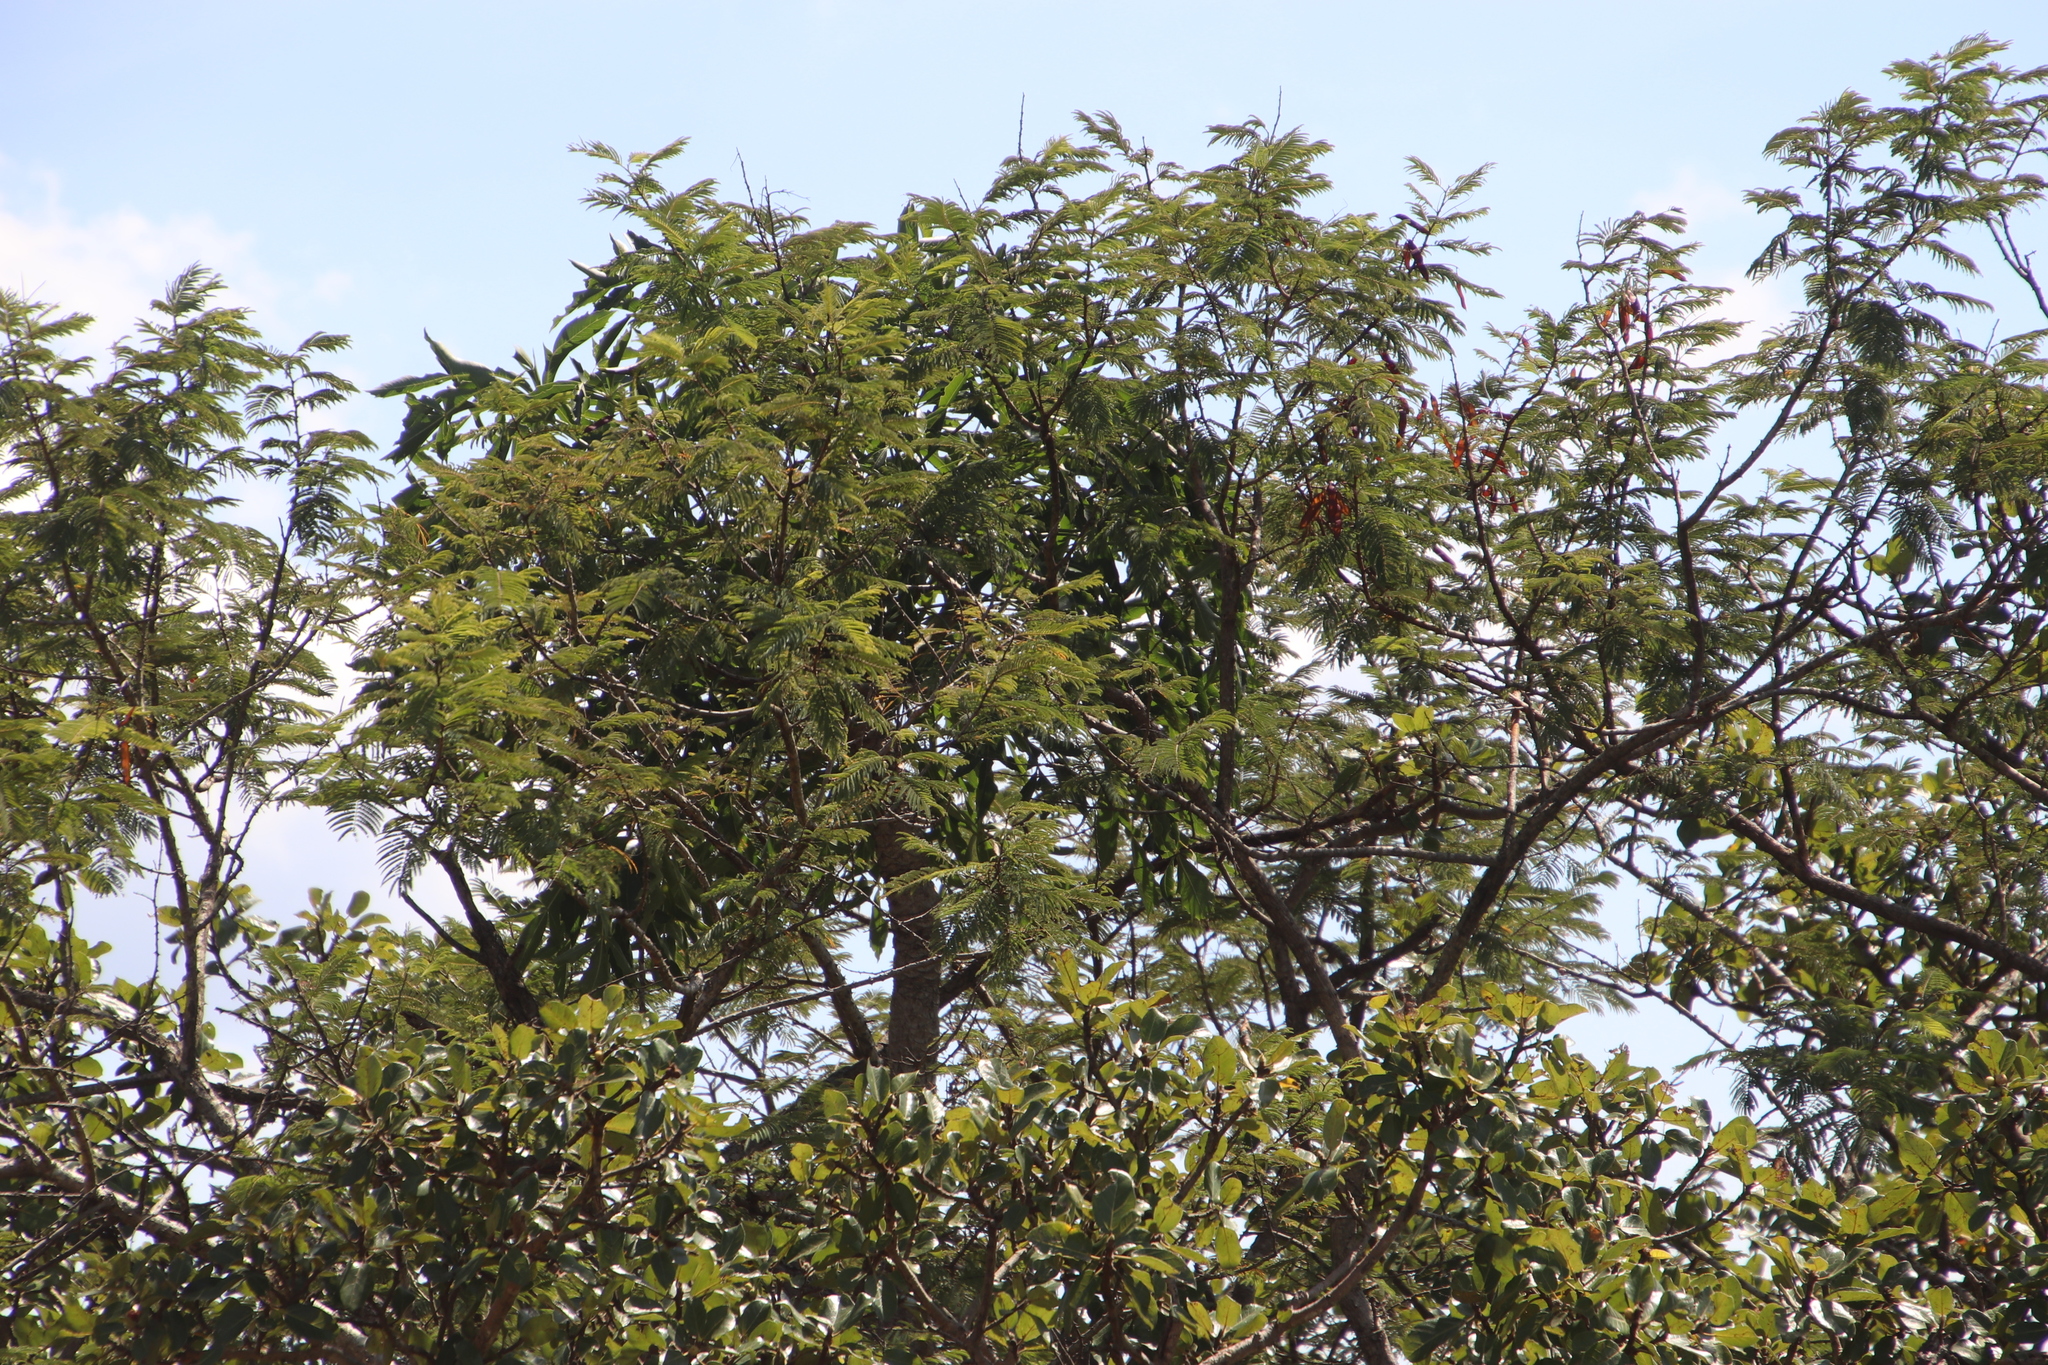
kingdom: Plantae
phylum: Tracheophyta
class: Magnoliopsida
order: Fabales
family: Fabaceae
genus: Senegalia
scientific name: Senegalia ataxacantha
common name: Flame acacia
